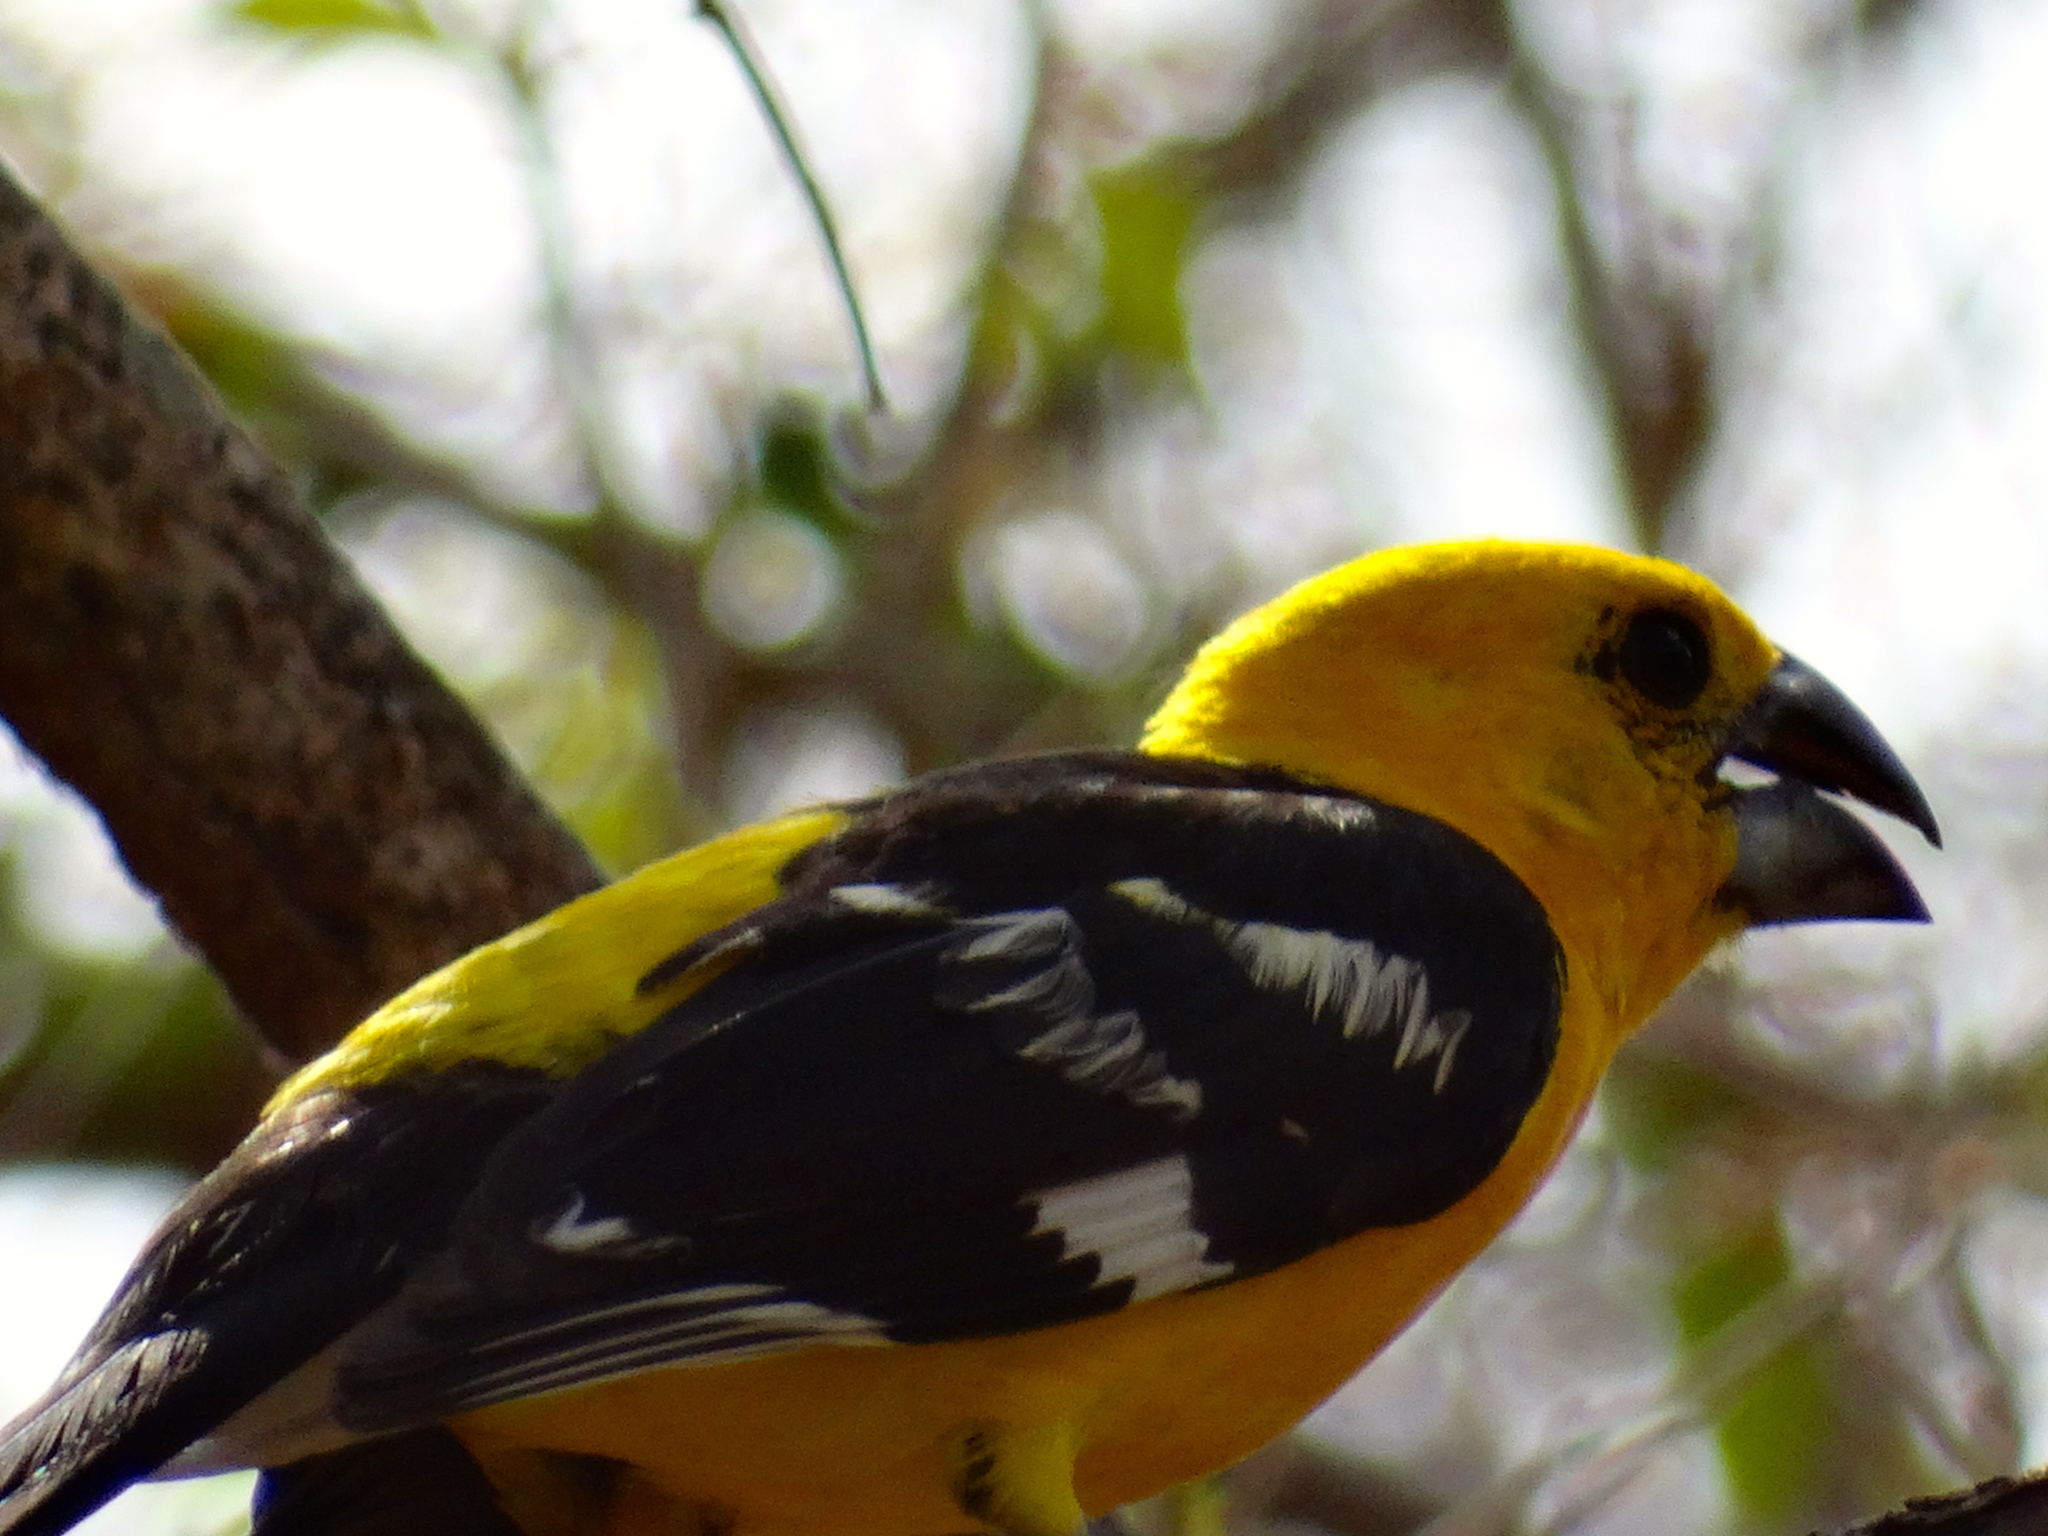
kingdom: Animalia
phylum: Chordata
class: Aves
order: Passeriformes
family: Cardinalidae
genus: Pheucticus
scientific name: Pheucticus chrysopeplus
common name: Yellow grosbeak
